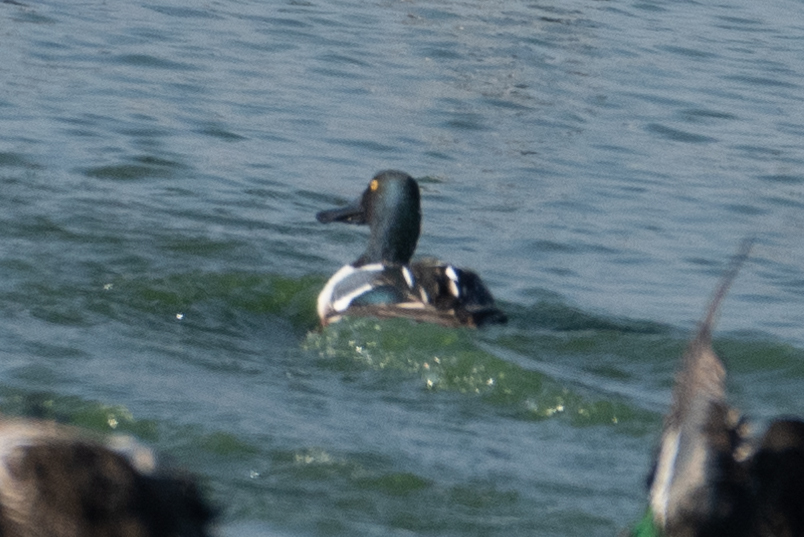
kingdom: Animalia
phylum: Chordata
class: Aves
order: Anseriformes
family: Anatidae
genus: Spatula
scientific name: Spatula clypeata
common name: Northern shoveler
